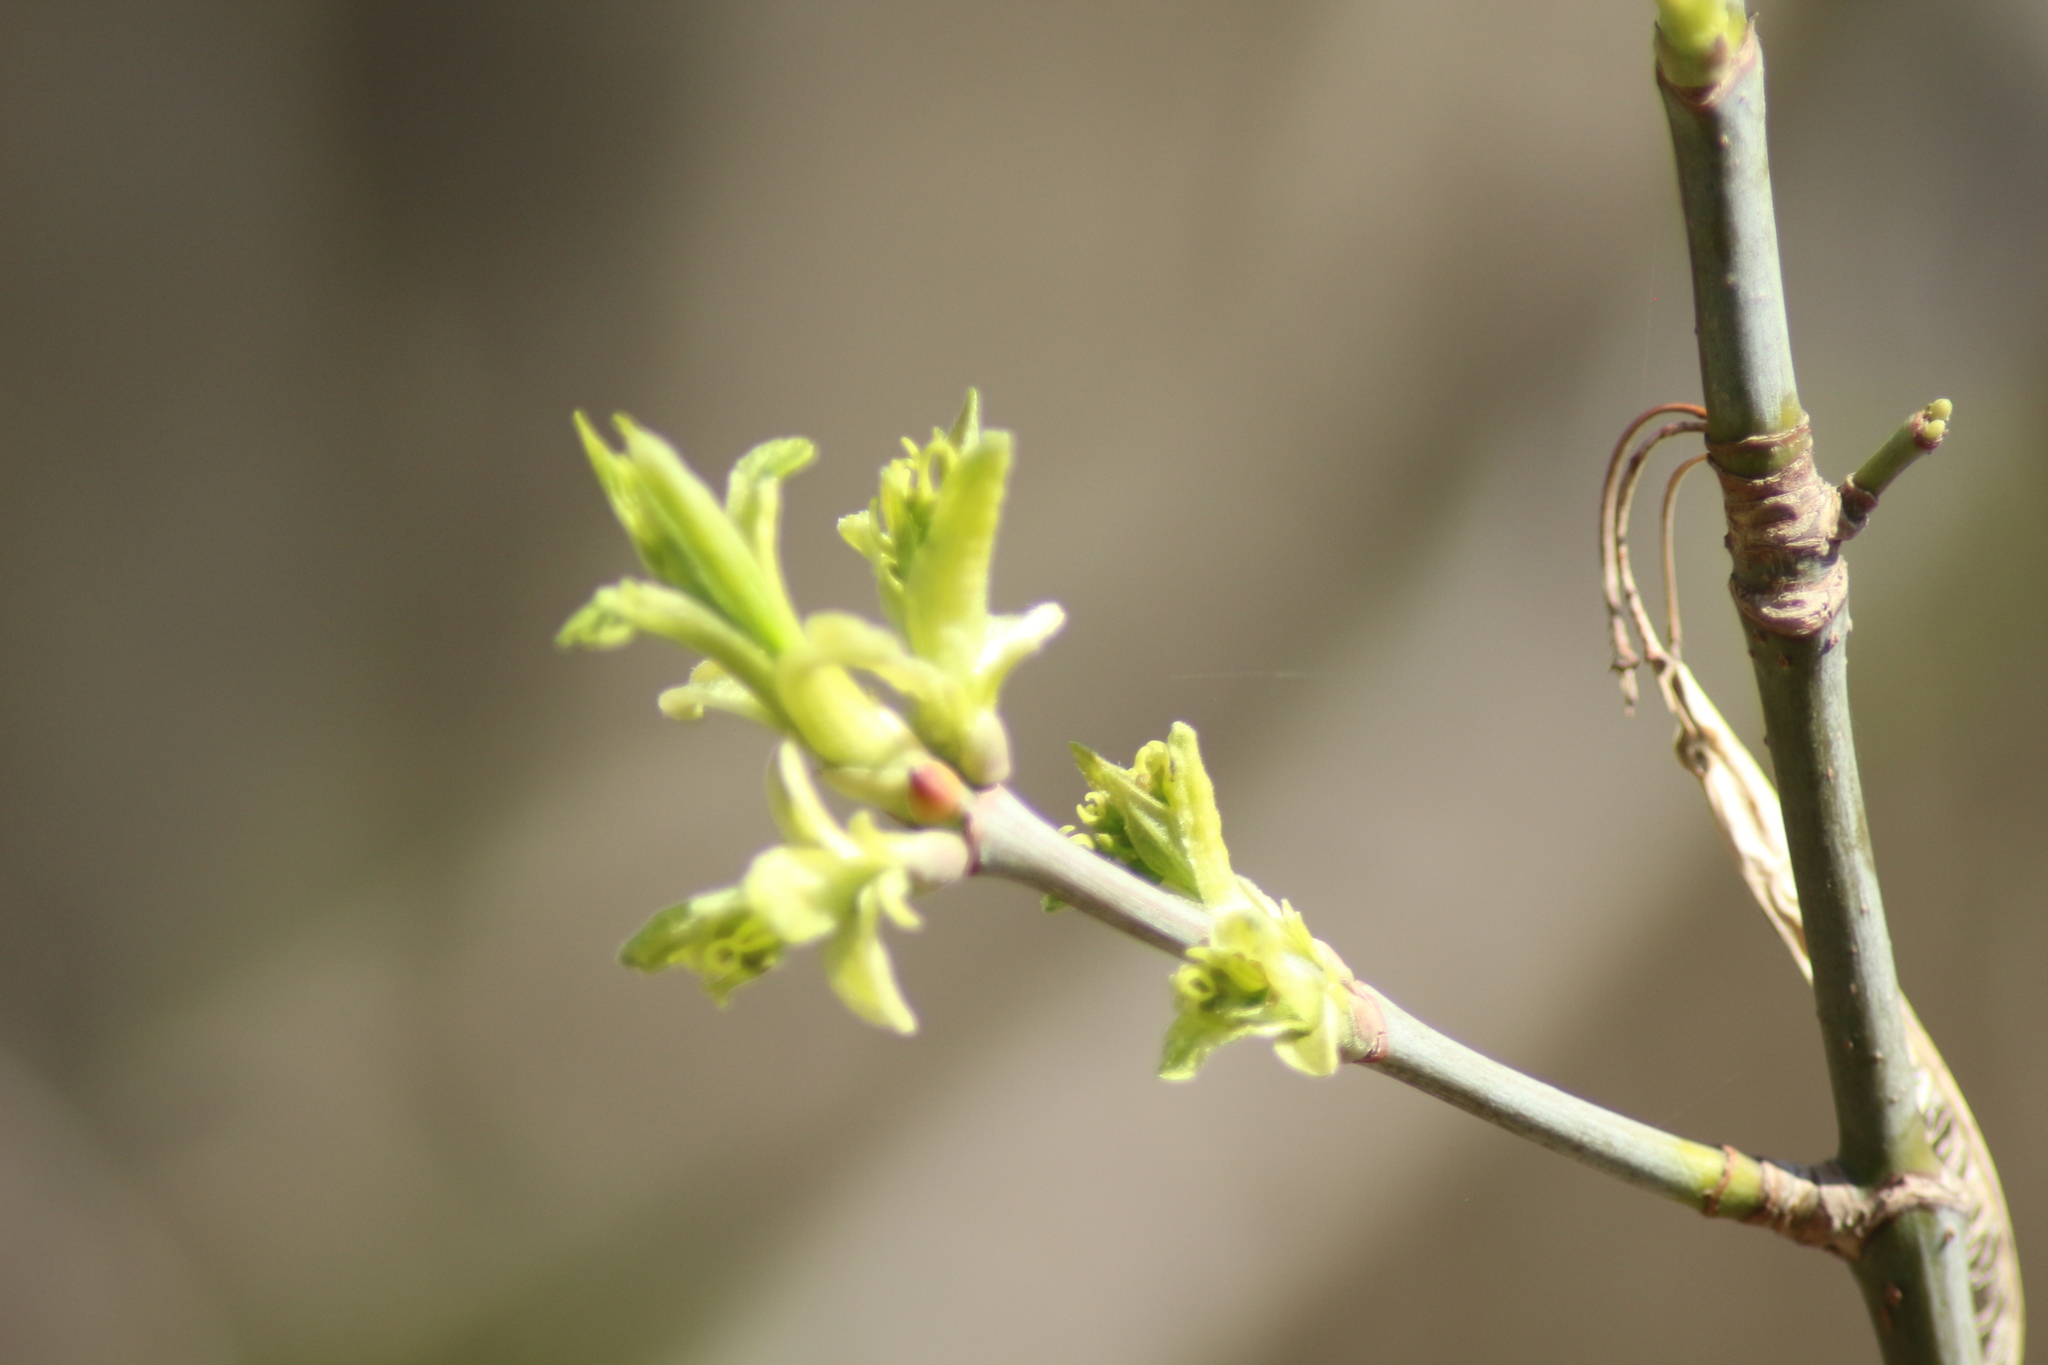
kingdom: Plantae
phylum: Tracheophyta
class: Magnoliopsida
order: Sapindales
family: Sapindaceae
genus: Acer
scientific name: Acer negundo
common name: Ashleaf maple
